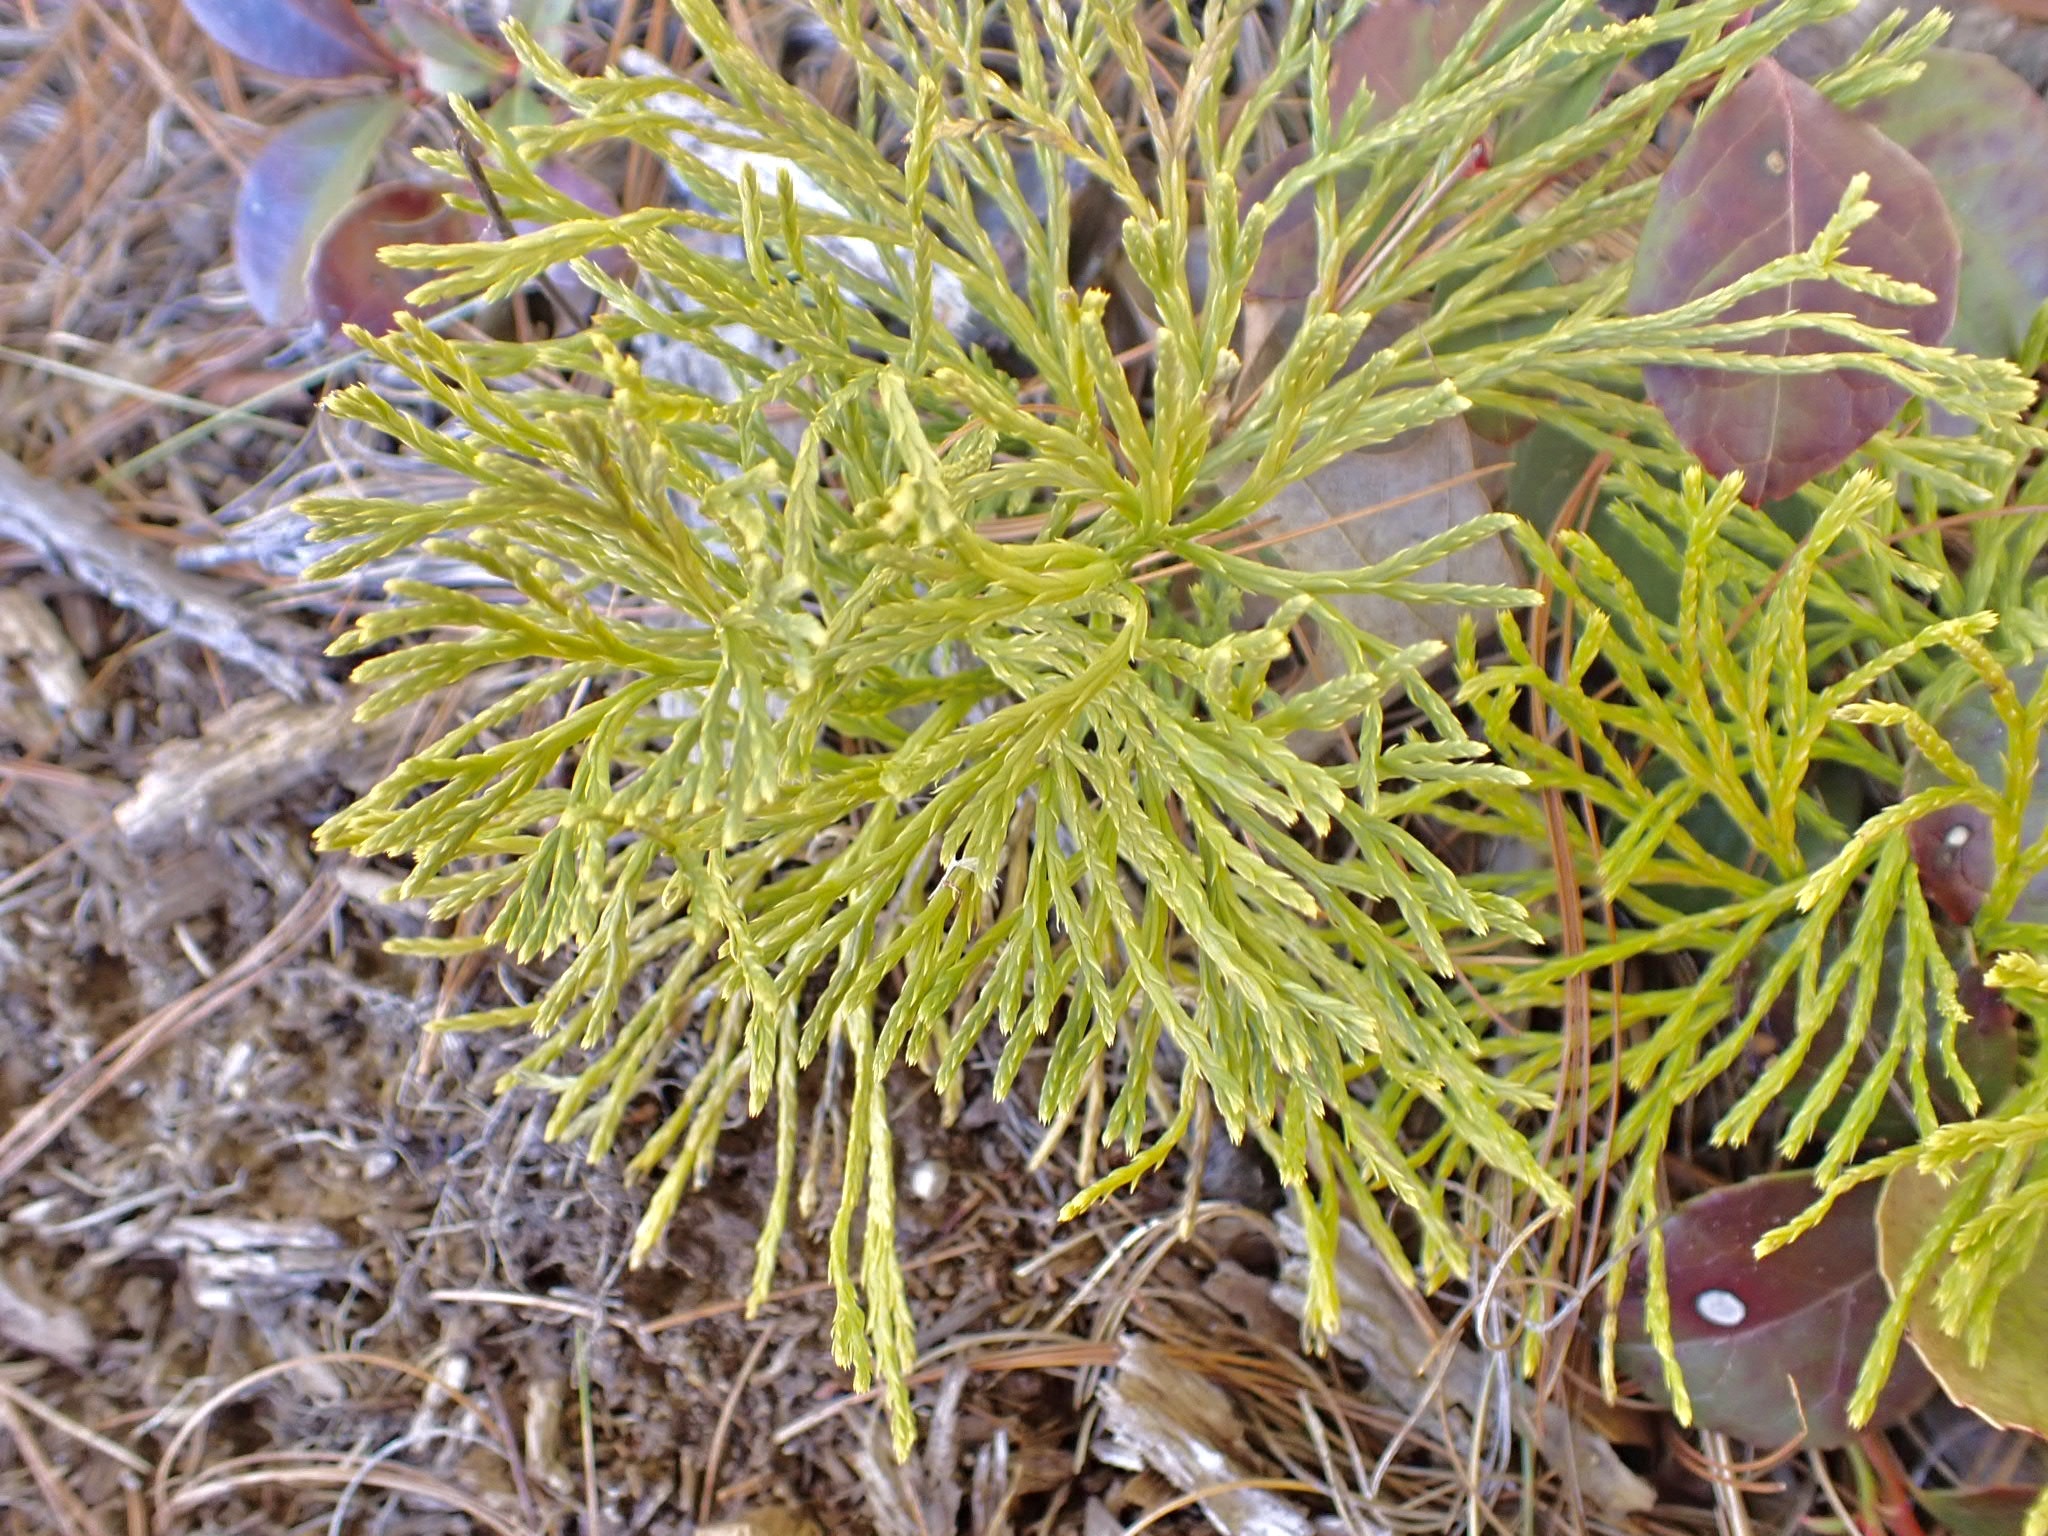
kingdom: Plantae
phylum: Tracheophyta
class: Lycopodiopsida
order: Lycopodiales
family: Lycopodiaceae
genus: Diphasiastrum
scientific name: Diphasiastrum tristachyum
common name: Blue ground-cedar
